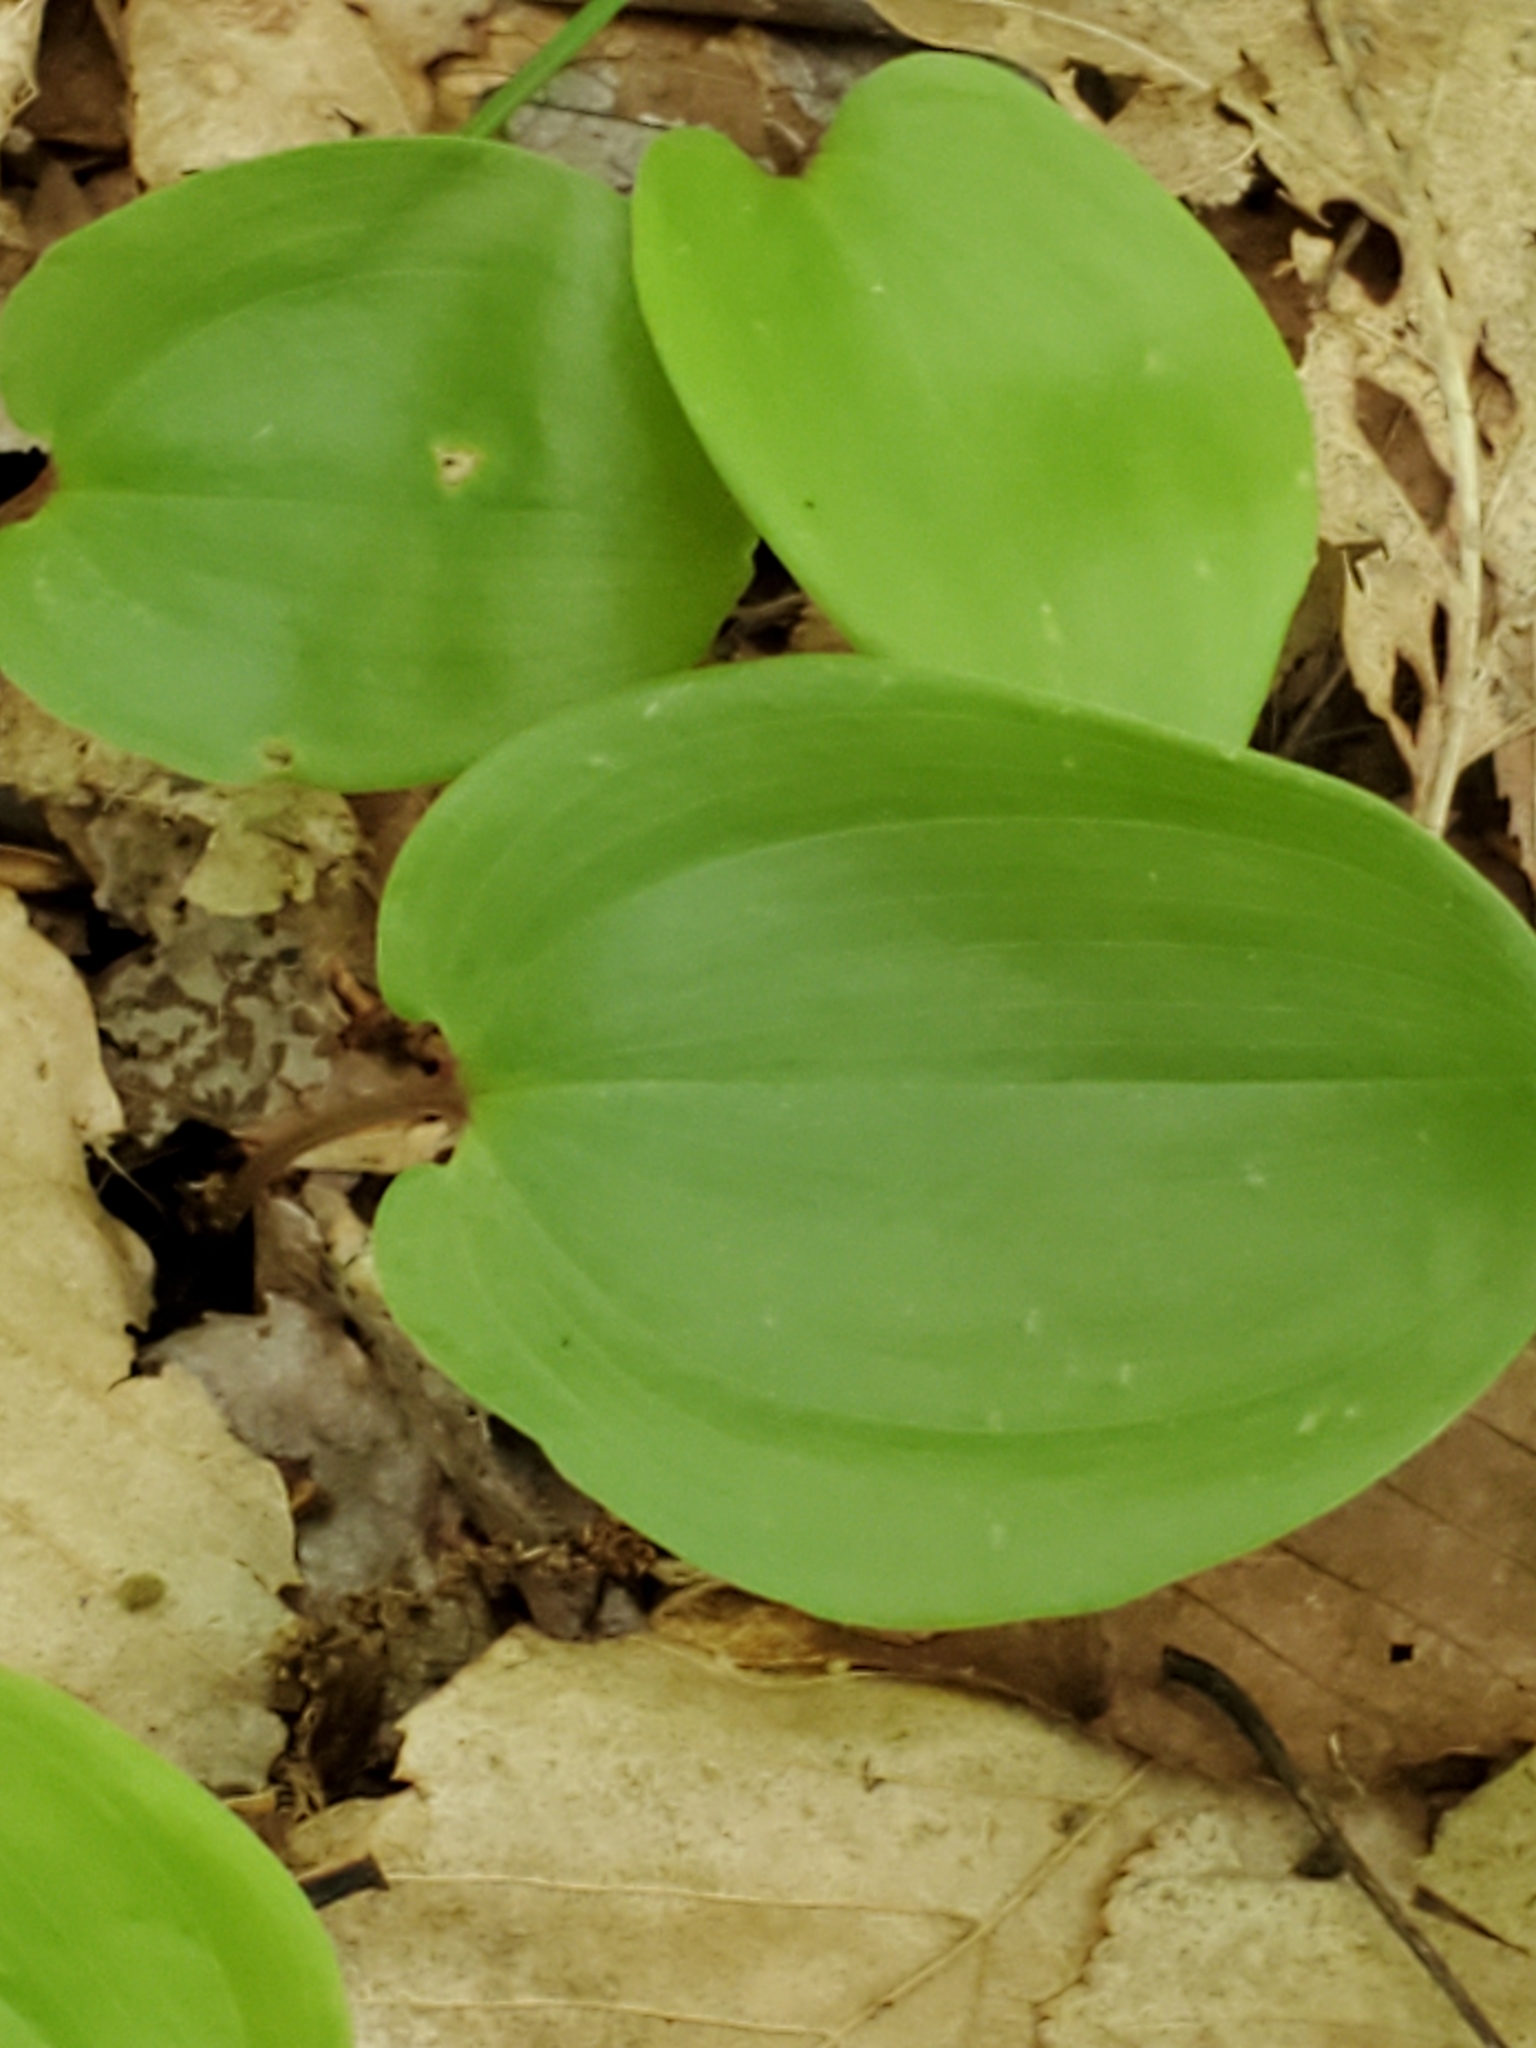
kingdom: Plantae
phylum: Tracheophyta
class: Liliopsida
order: Asparagales
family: Asparagaceae
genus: Maianthemum
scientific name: Maianthemum canadense
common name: False lily-of-the-valley
